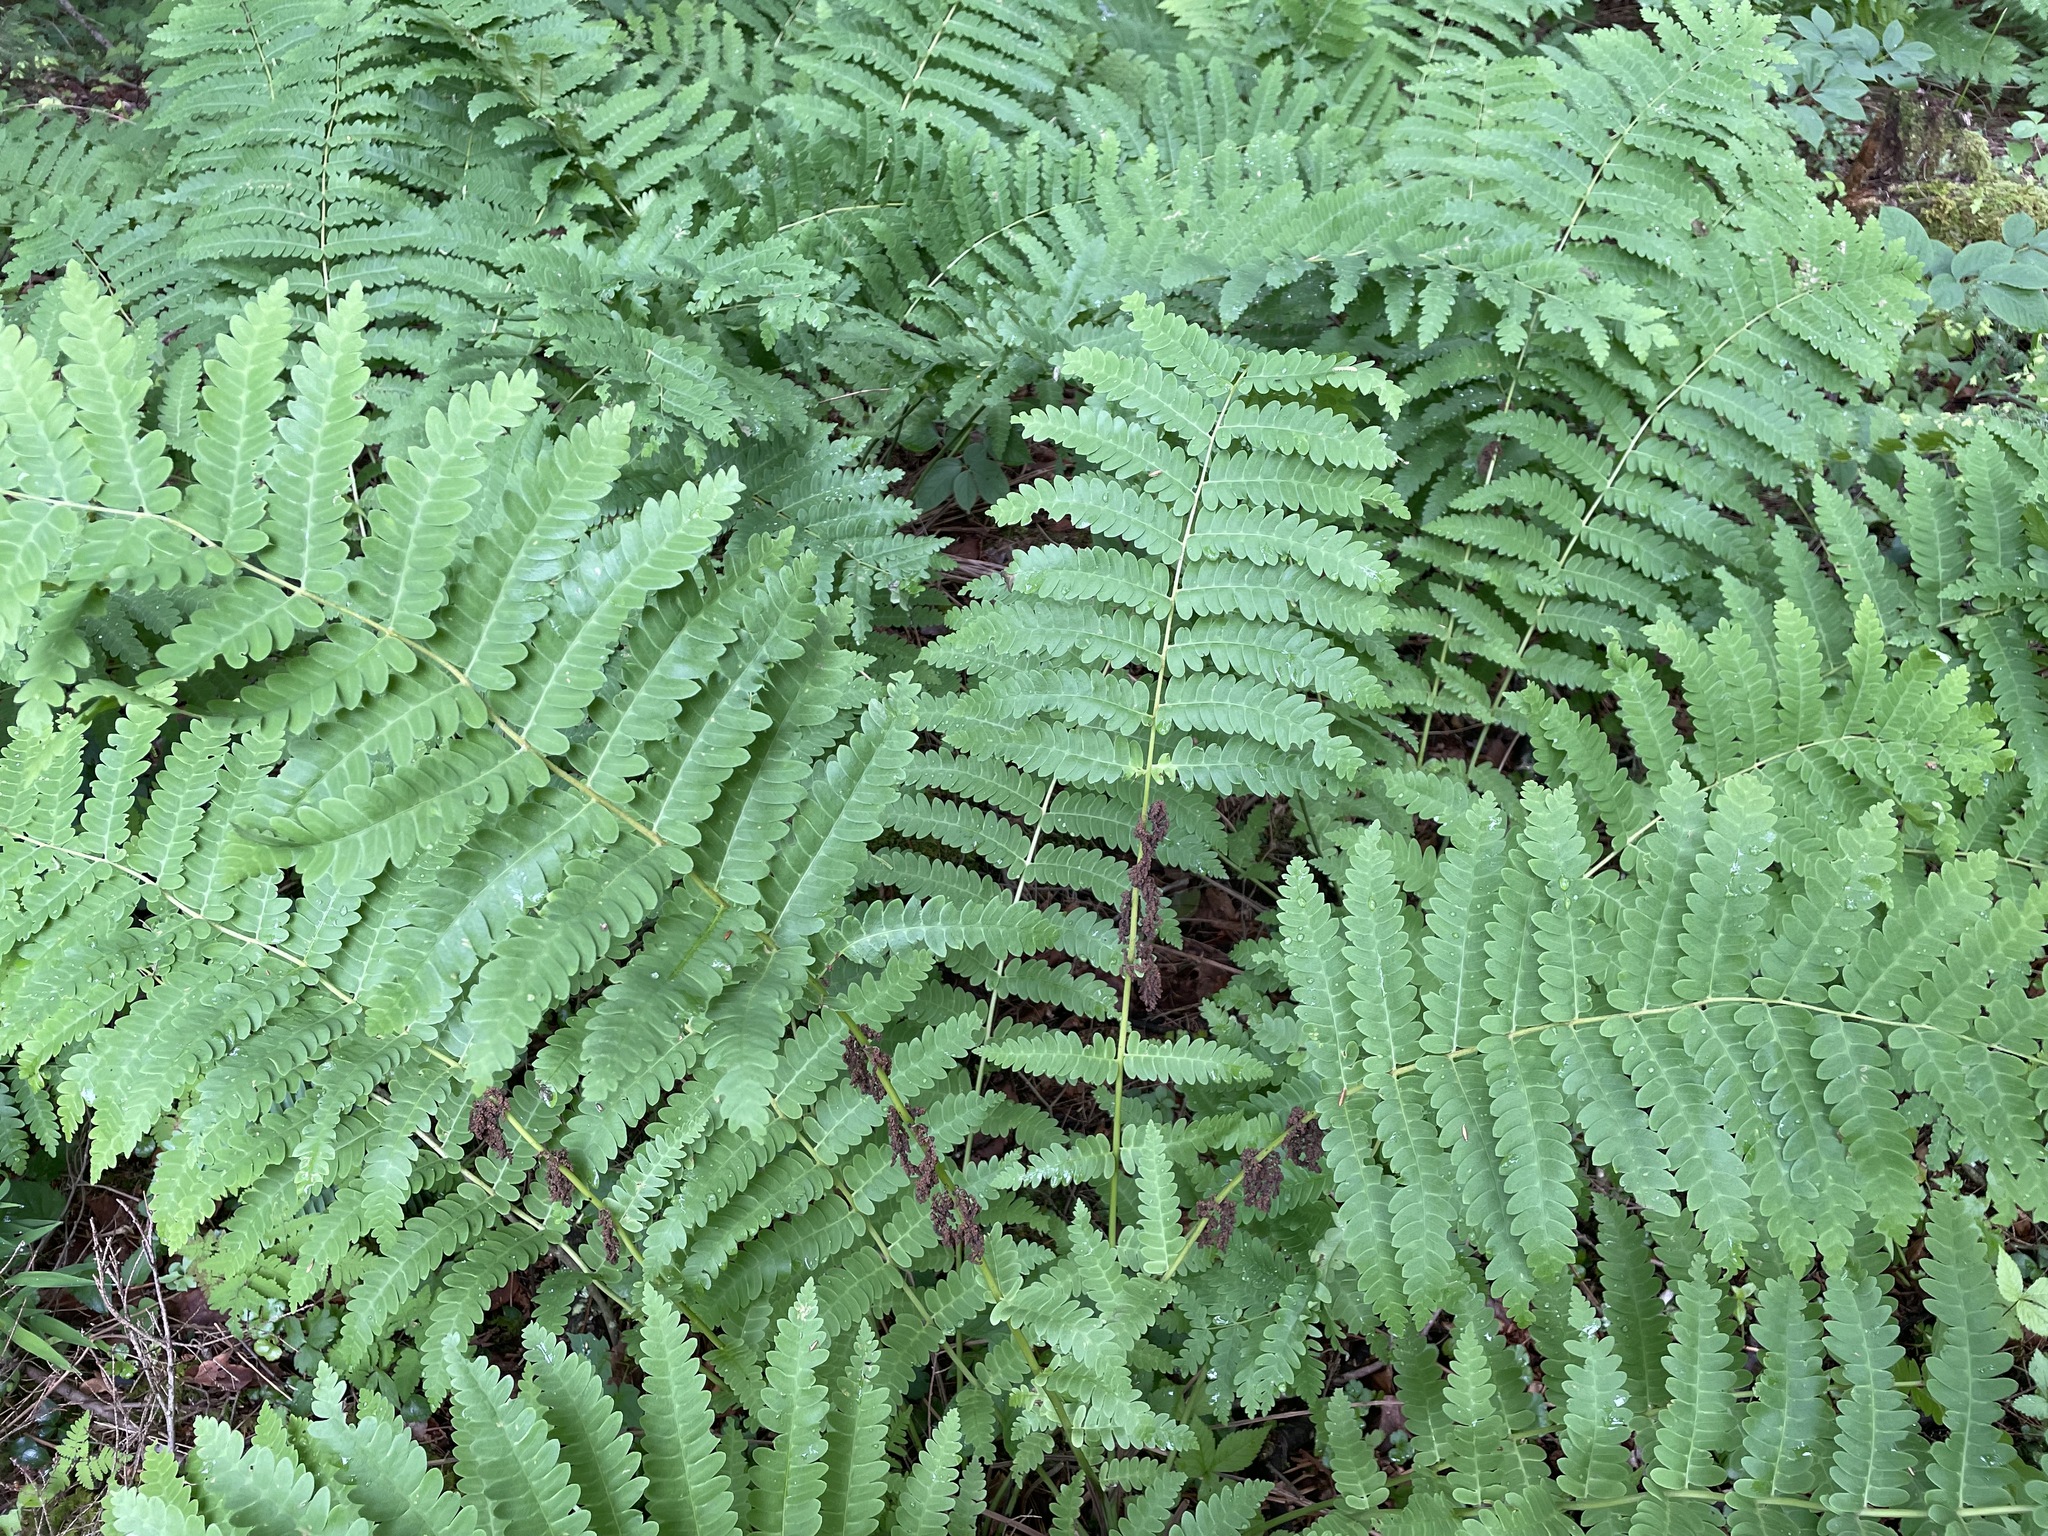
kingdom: Plantae
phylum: Tracheophyta
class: Polypodiopsida
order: Osmundales
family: Osmundaceae
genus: Claytosmunda
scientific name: Claytosmunda claytoniana
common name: Clayton's fern
